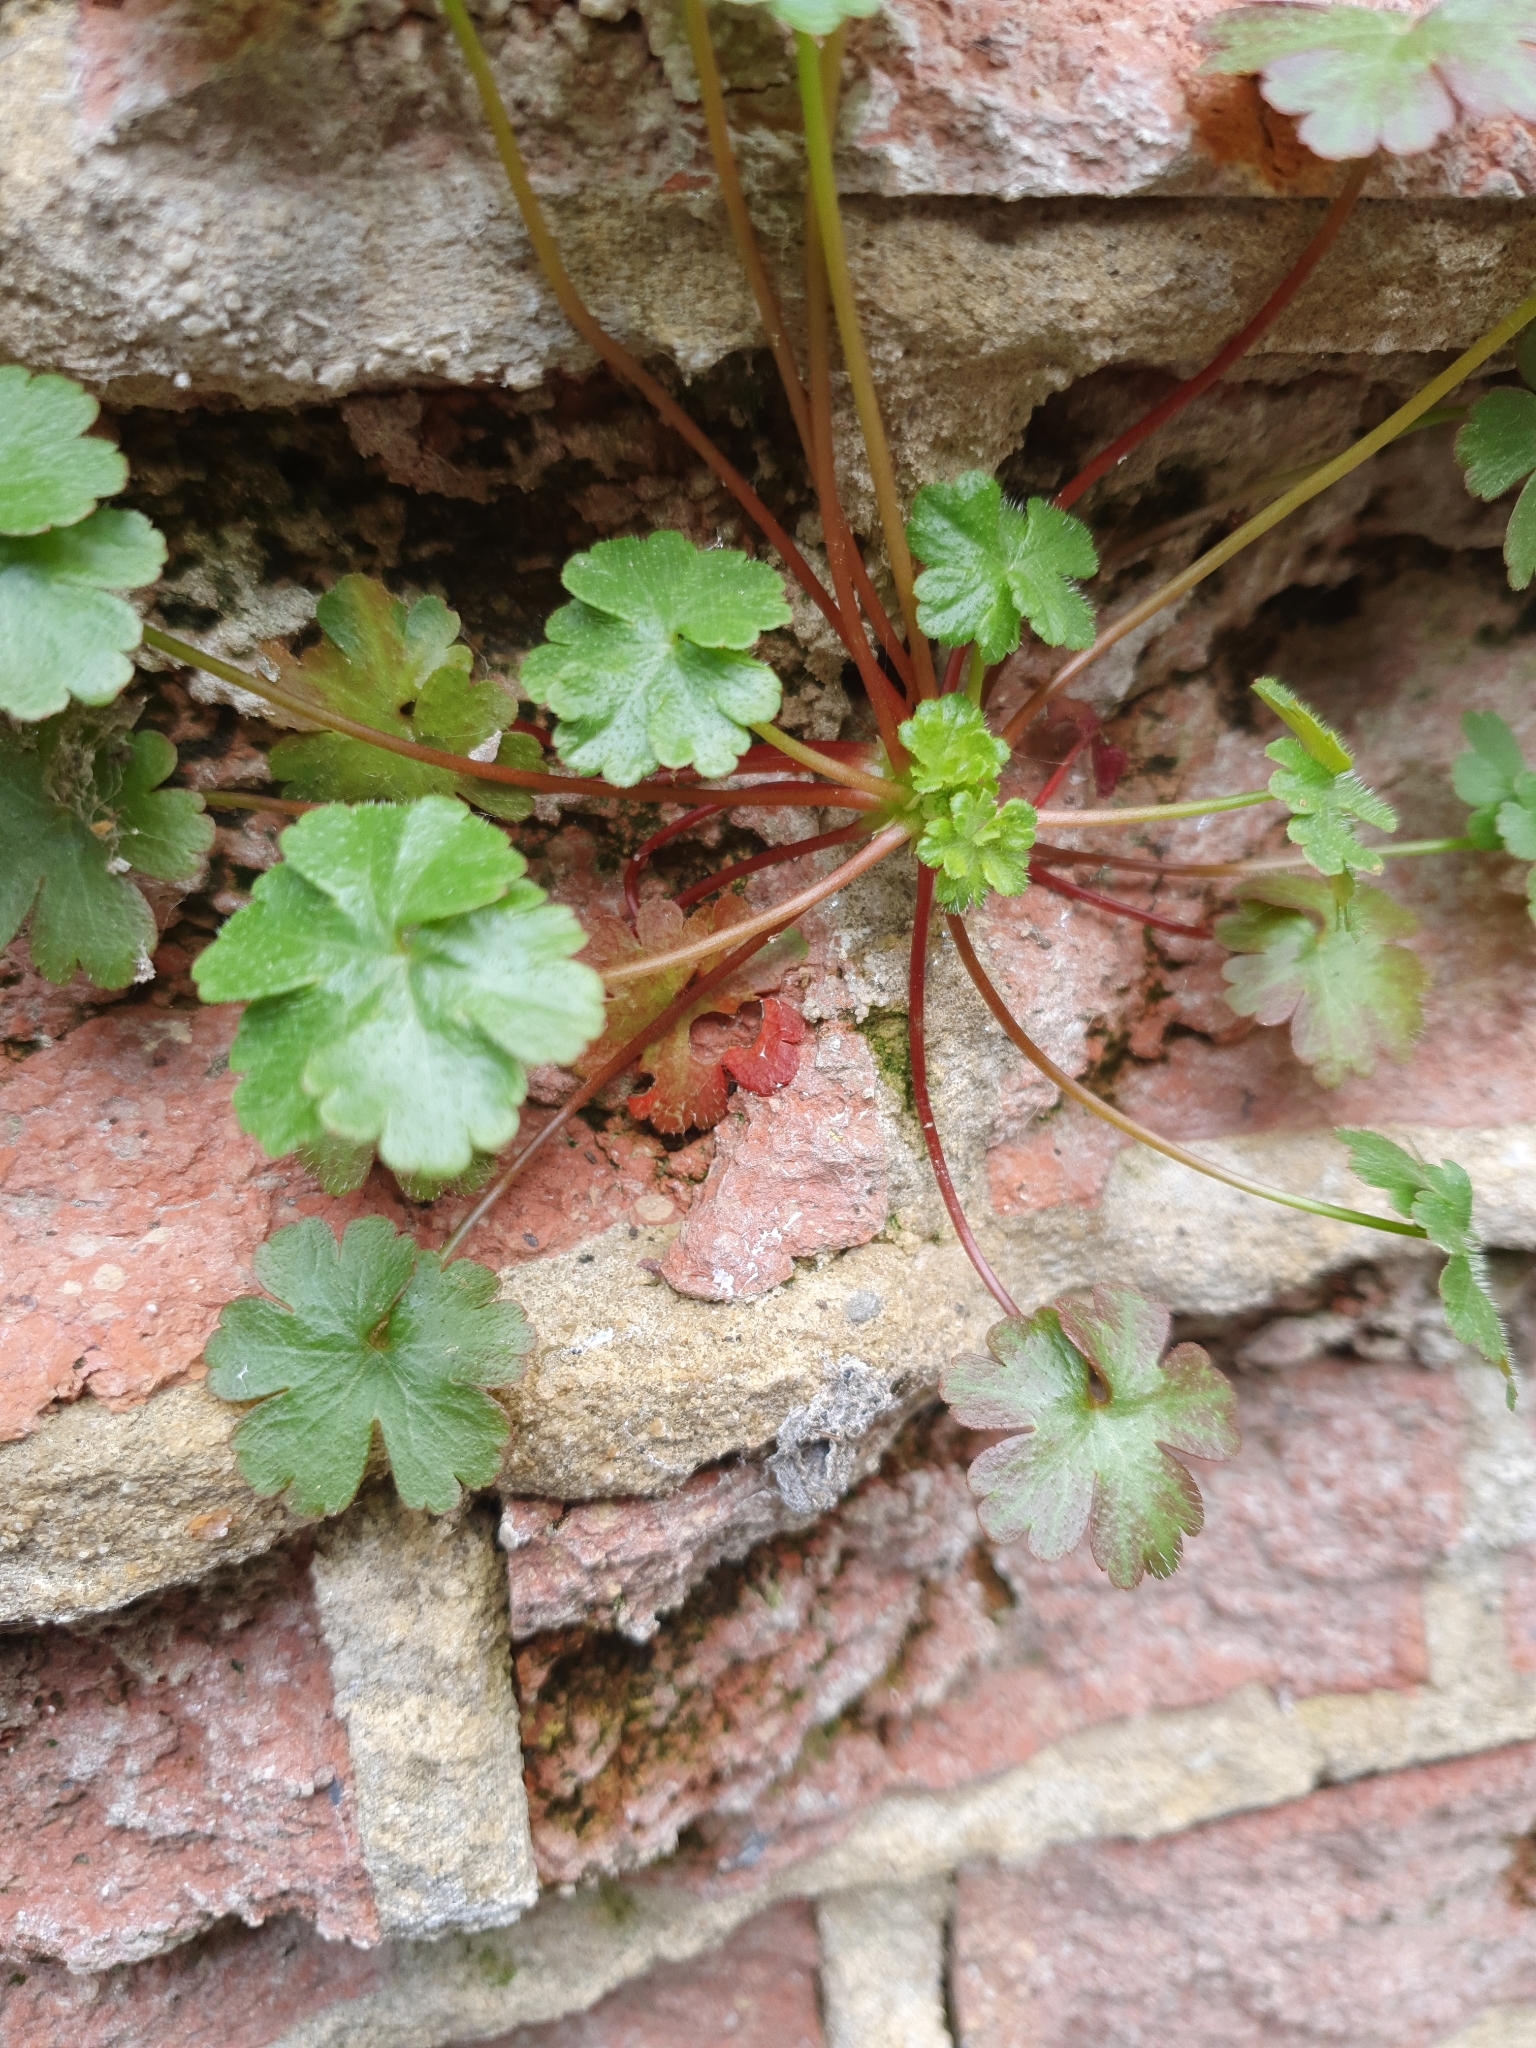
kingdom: Plantae
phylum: Tracheophyta
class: Magnoliopsida
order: Geraniales
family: Geraniaceae
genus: Geranium
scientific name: Geranium lucidum
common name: Shining crane's-bill
